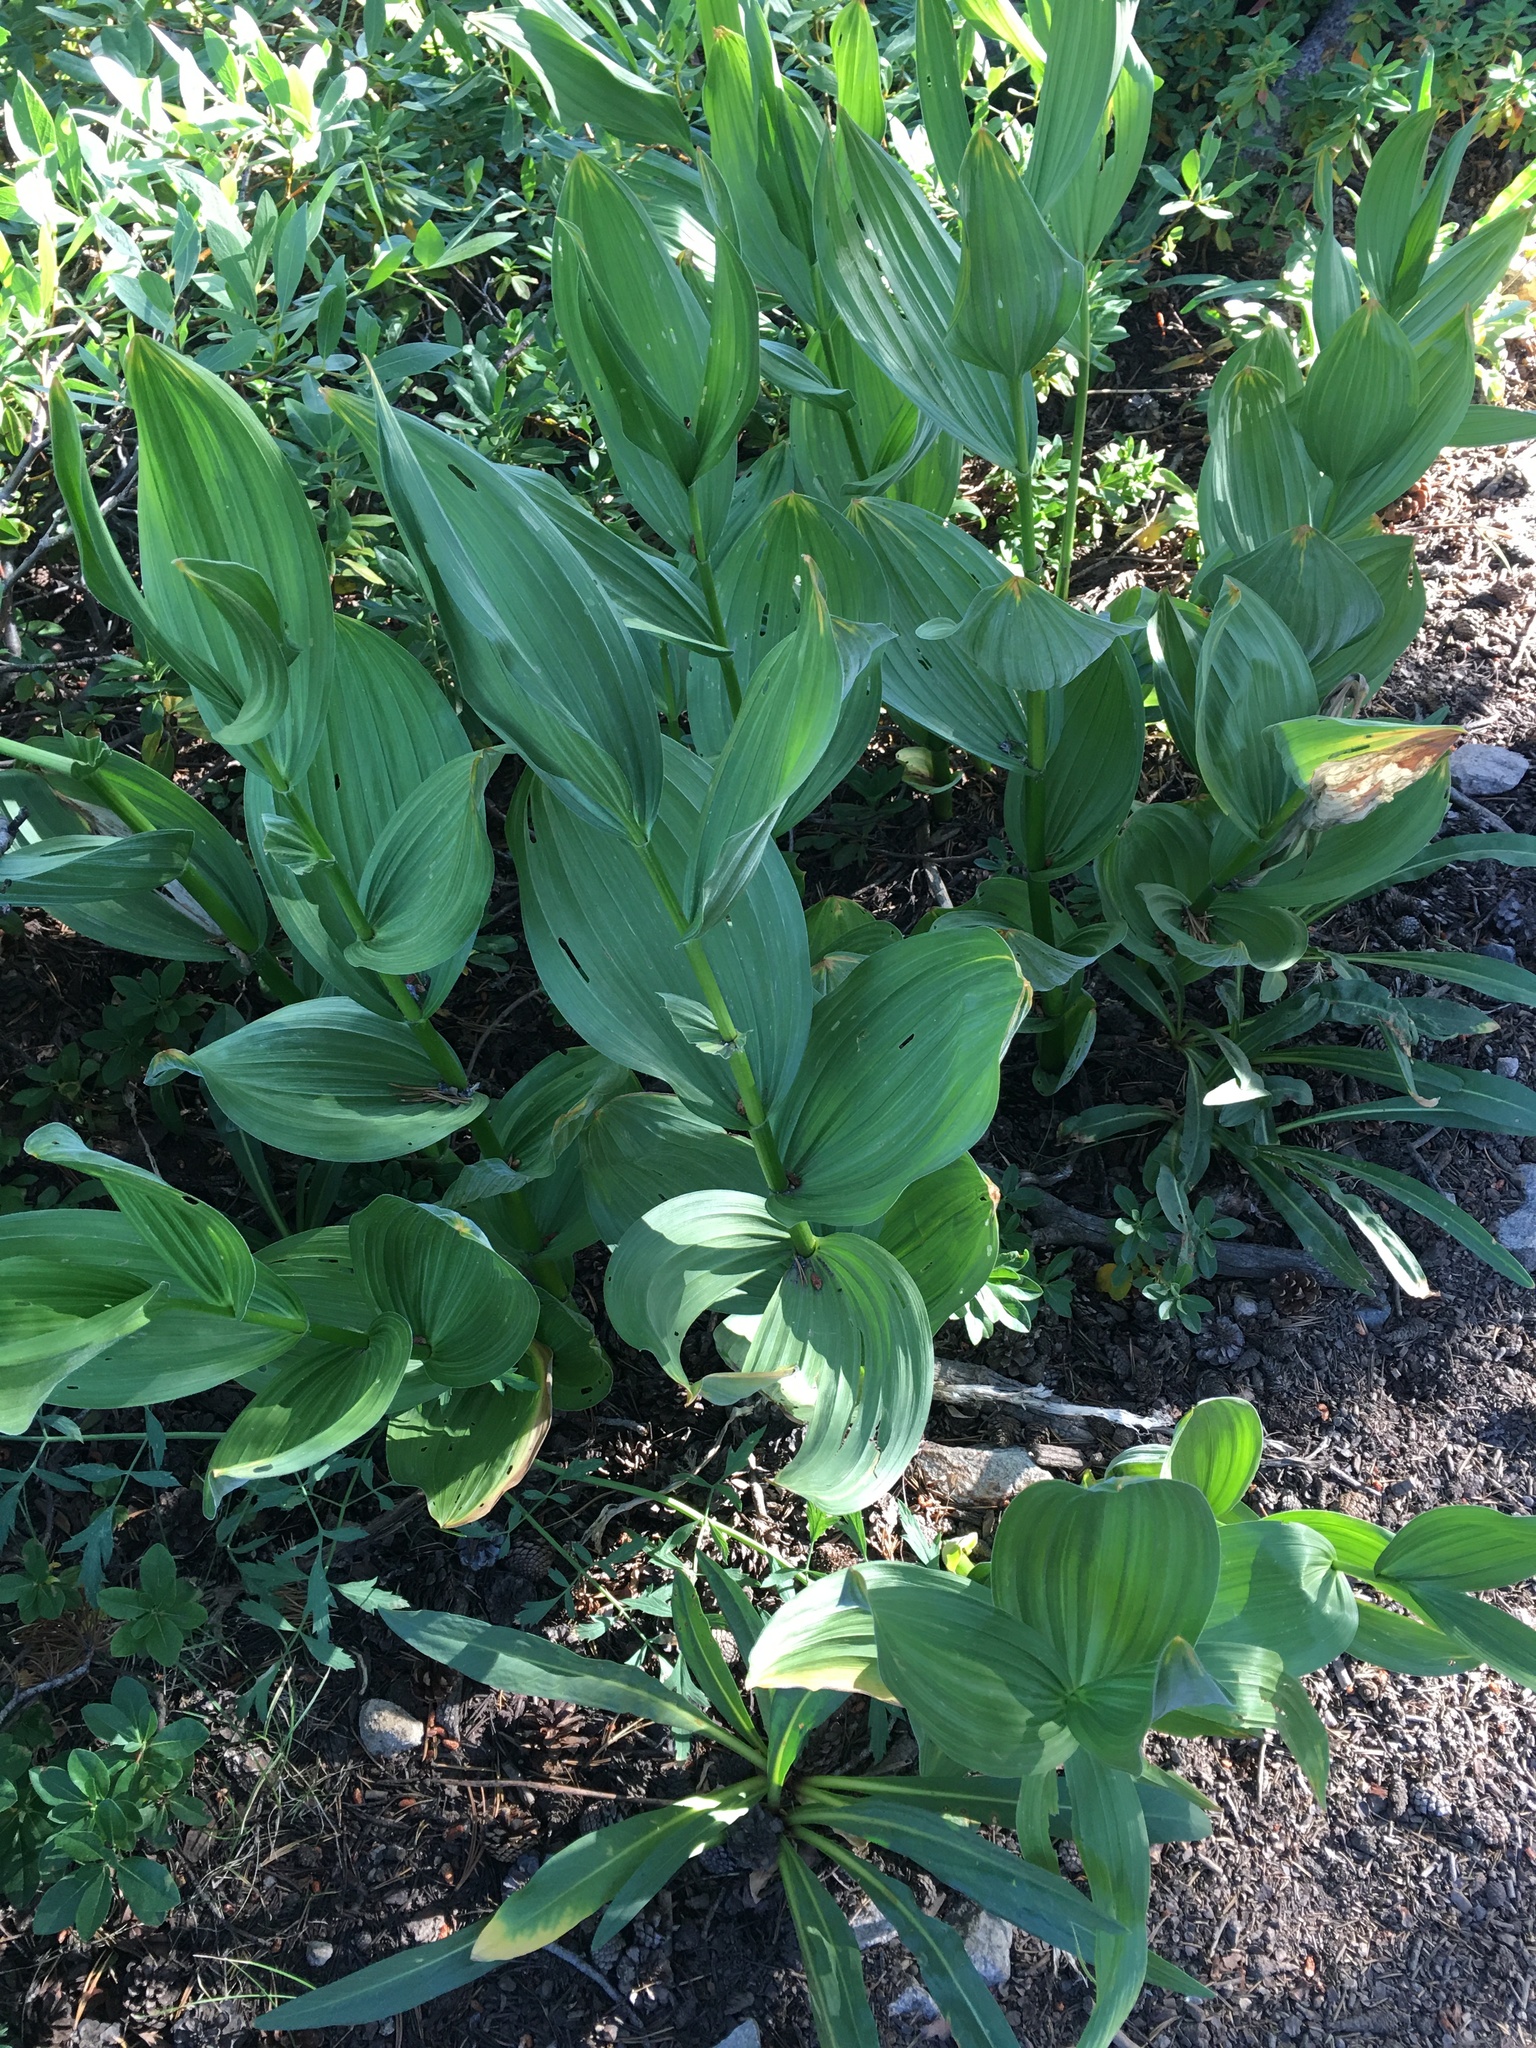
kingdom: Plantae
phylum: Tracheophyta
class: Liliopsida
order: Liliales
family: Melanthiaceae
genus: Veratrum
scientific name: Veratrum californicum
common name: California veratrum
